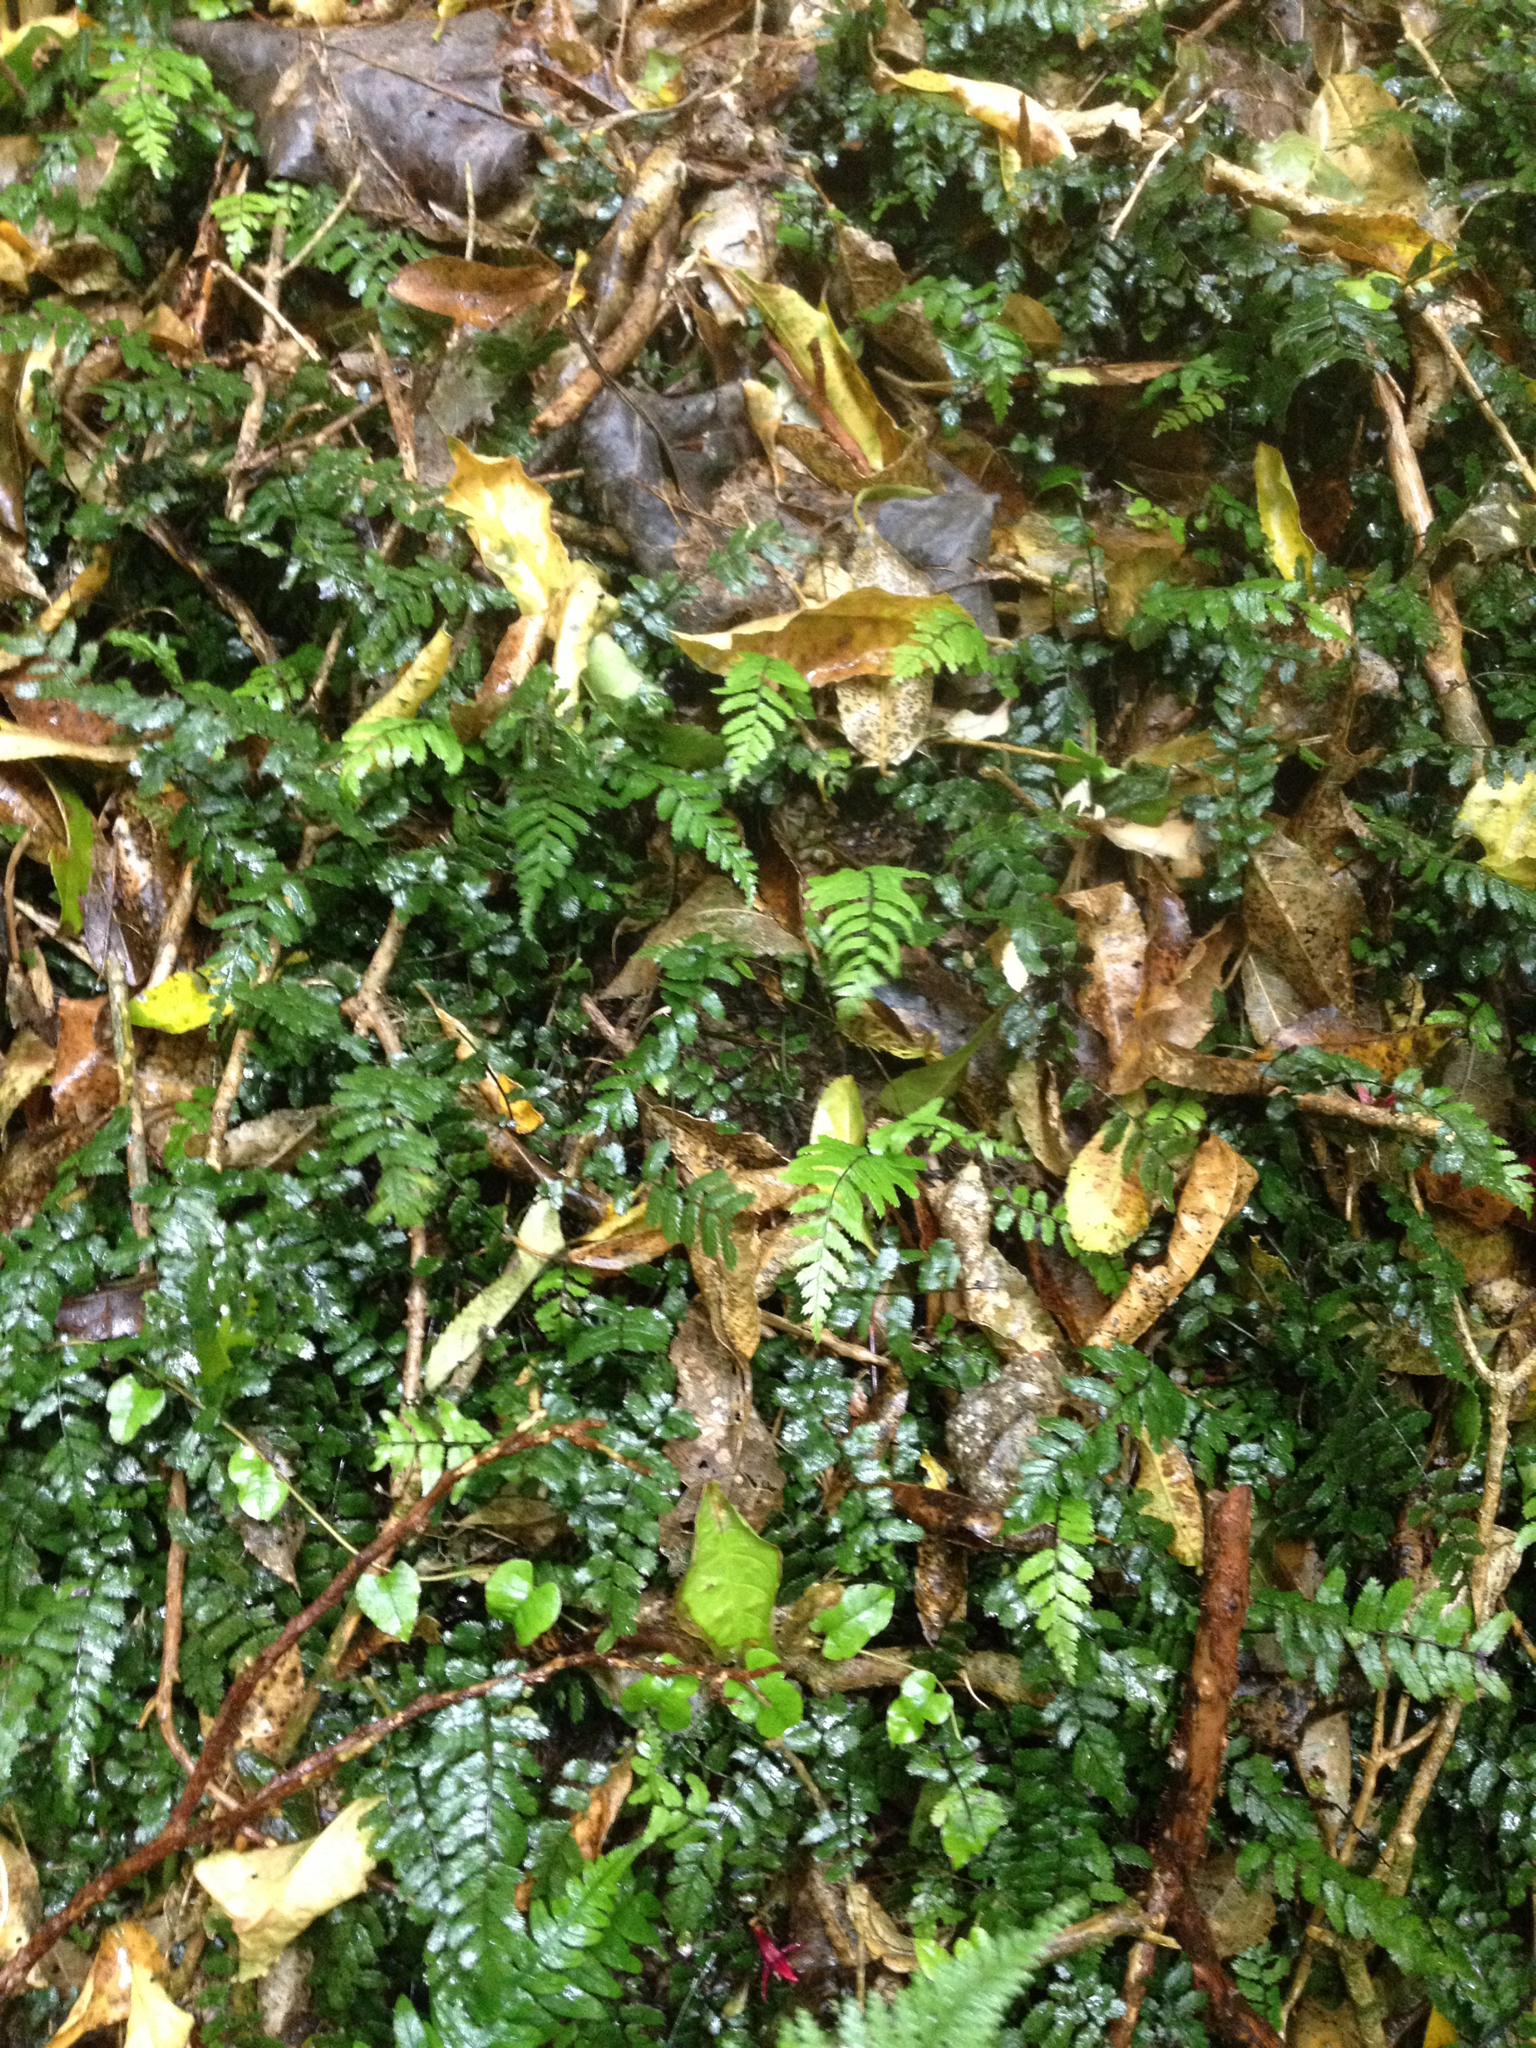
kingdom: Plantae
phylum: Tracheophyta
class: Polypodiopsida
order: Polypodiales
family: Blechnaceae
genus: Icarus
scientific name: Icarus filiformis
